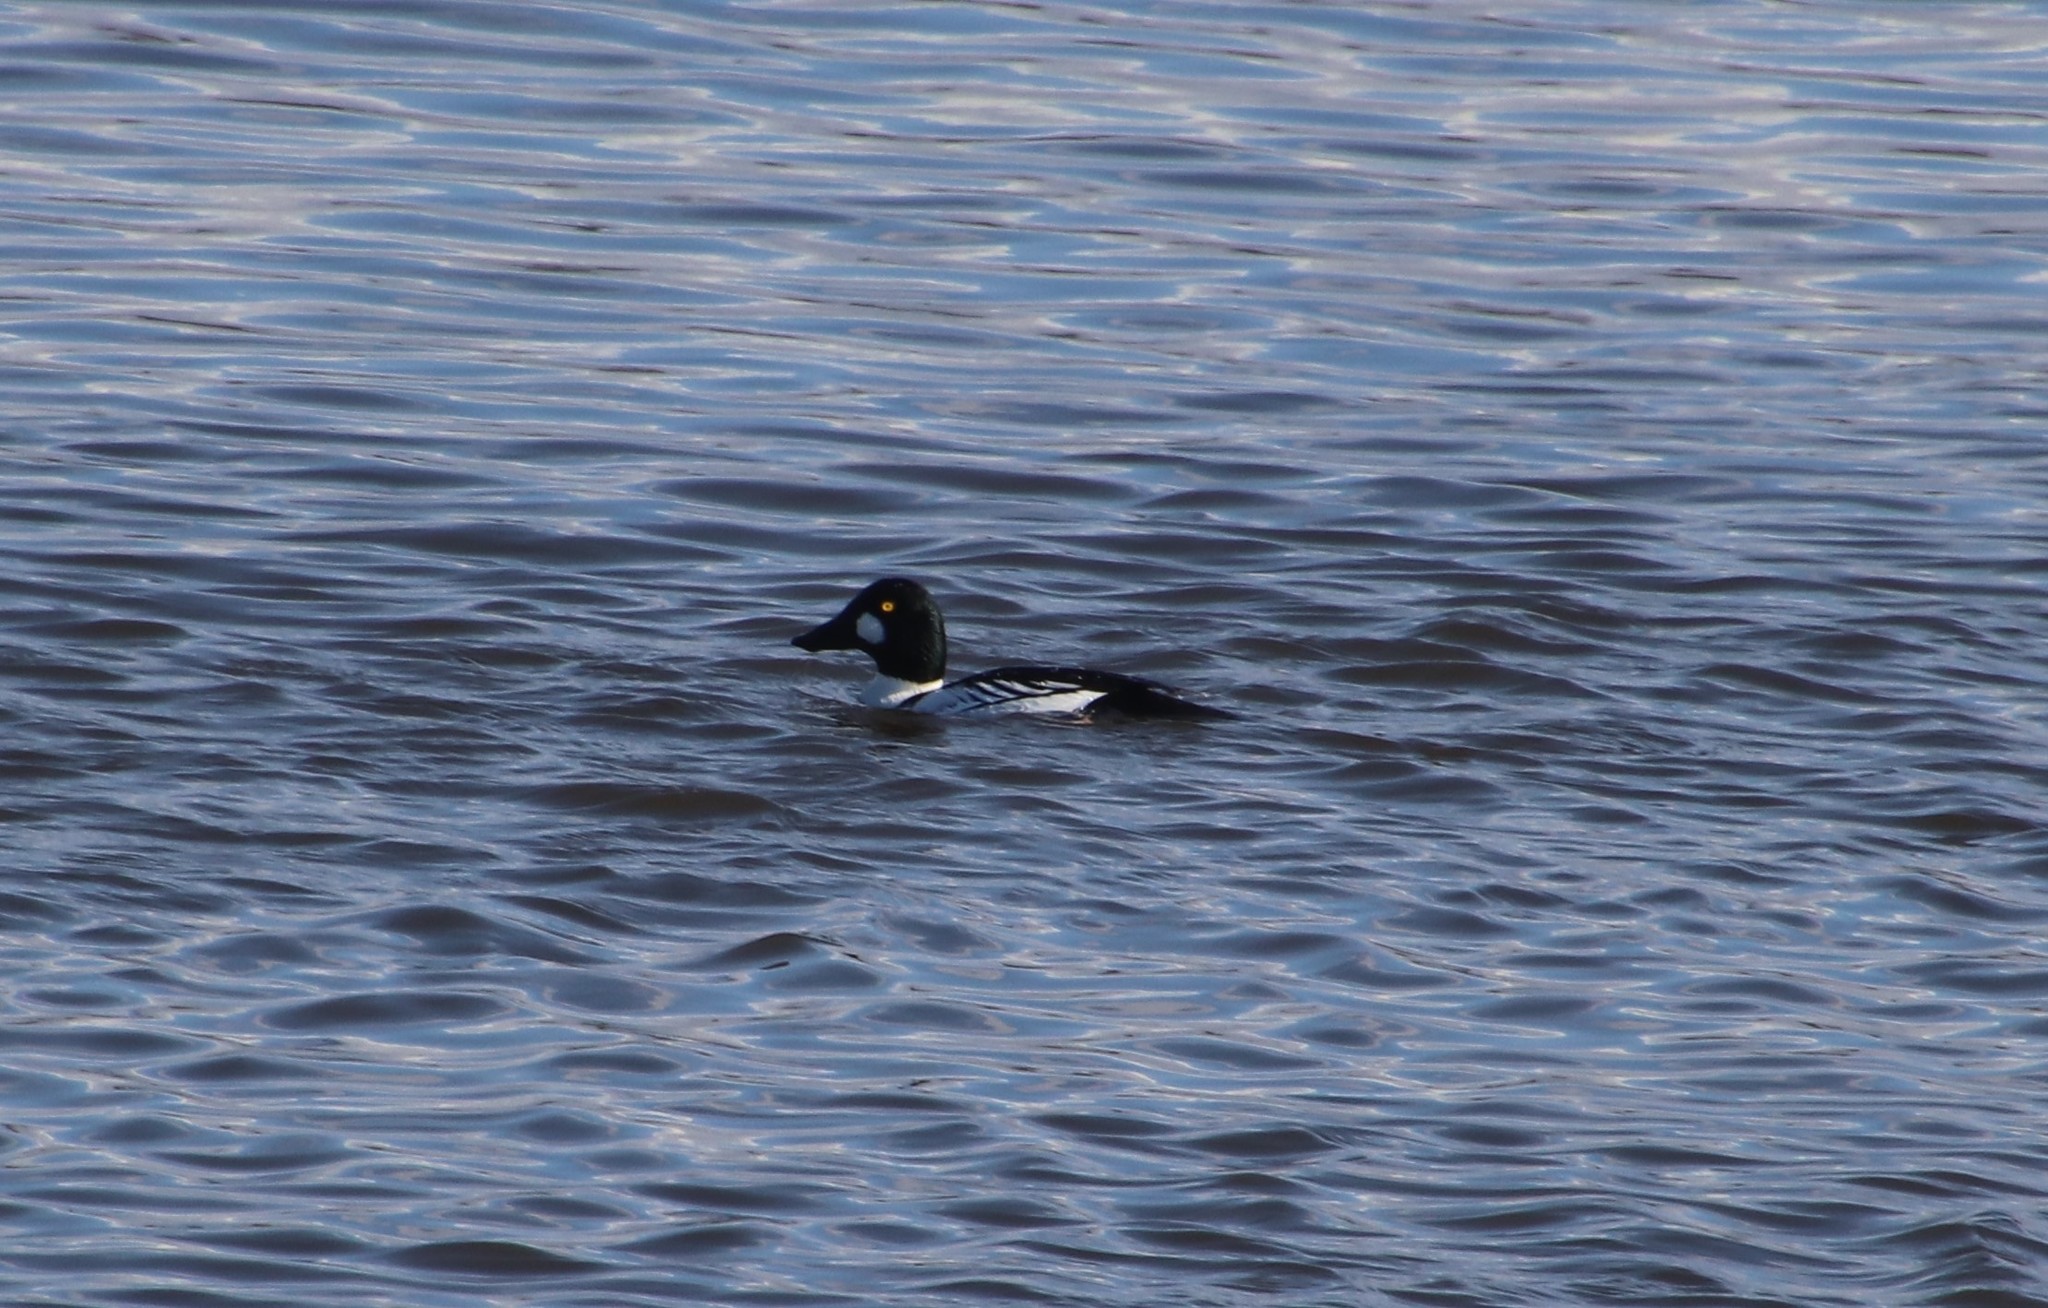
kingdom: Animalia
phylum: Chordata
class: Aves
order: Anseriformes
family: Anatidae
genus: Bucephala
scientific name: Bucephala clangula
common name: Common goldeneye
